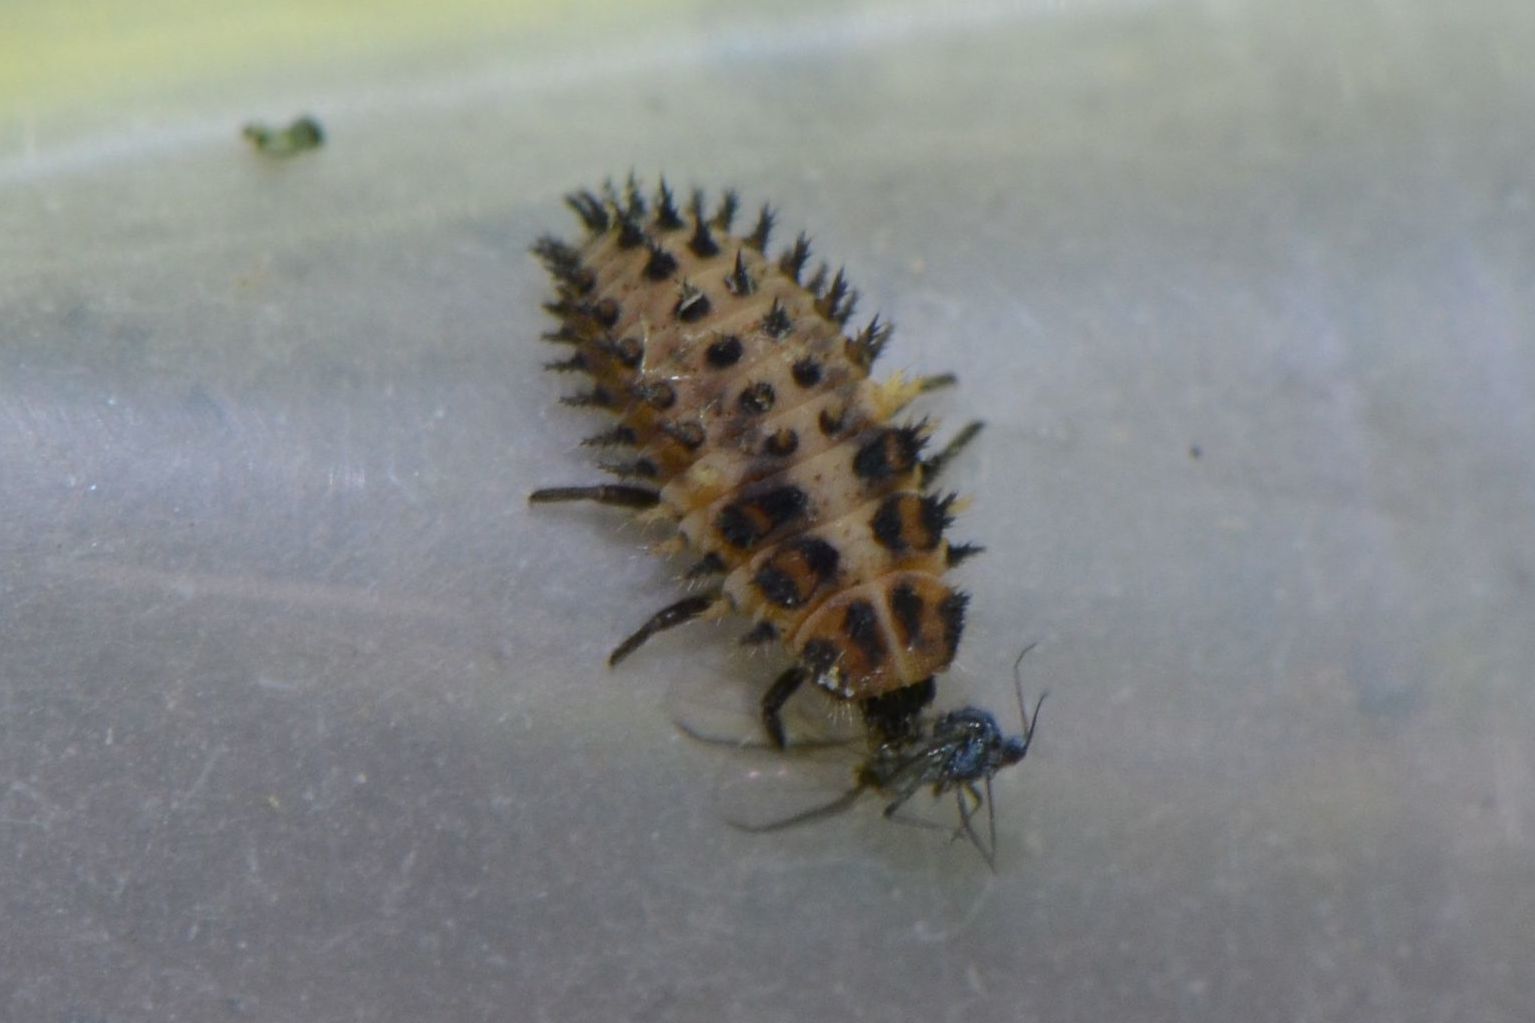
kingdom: Animalia
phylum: Arthropoda
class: Insecta
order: Coleoptera
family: Coccinellidae
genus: Brumus
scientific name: Brumus quadripustulatus
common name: Ladybird beetle
